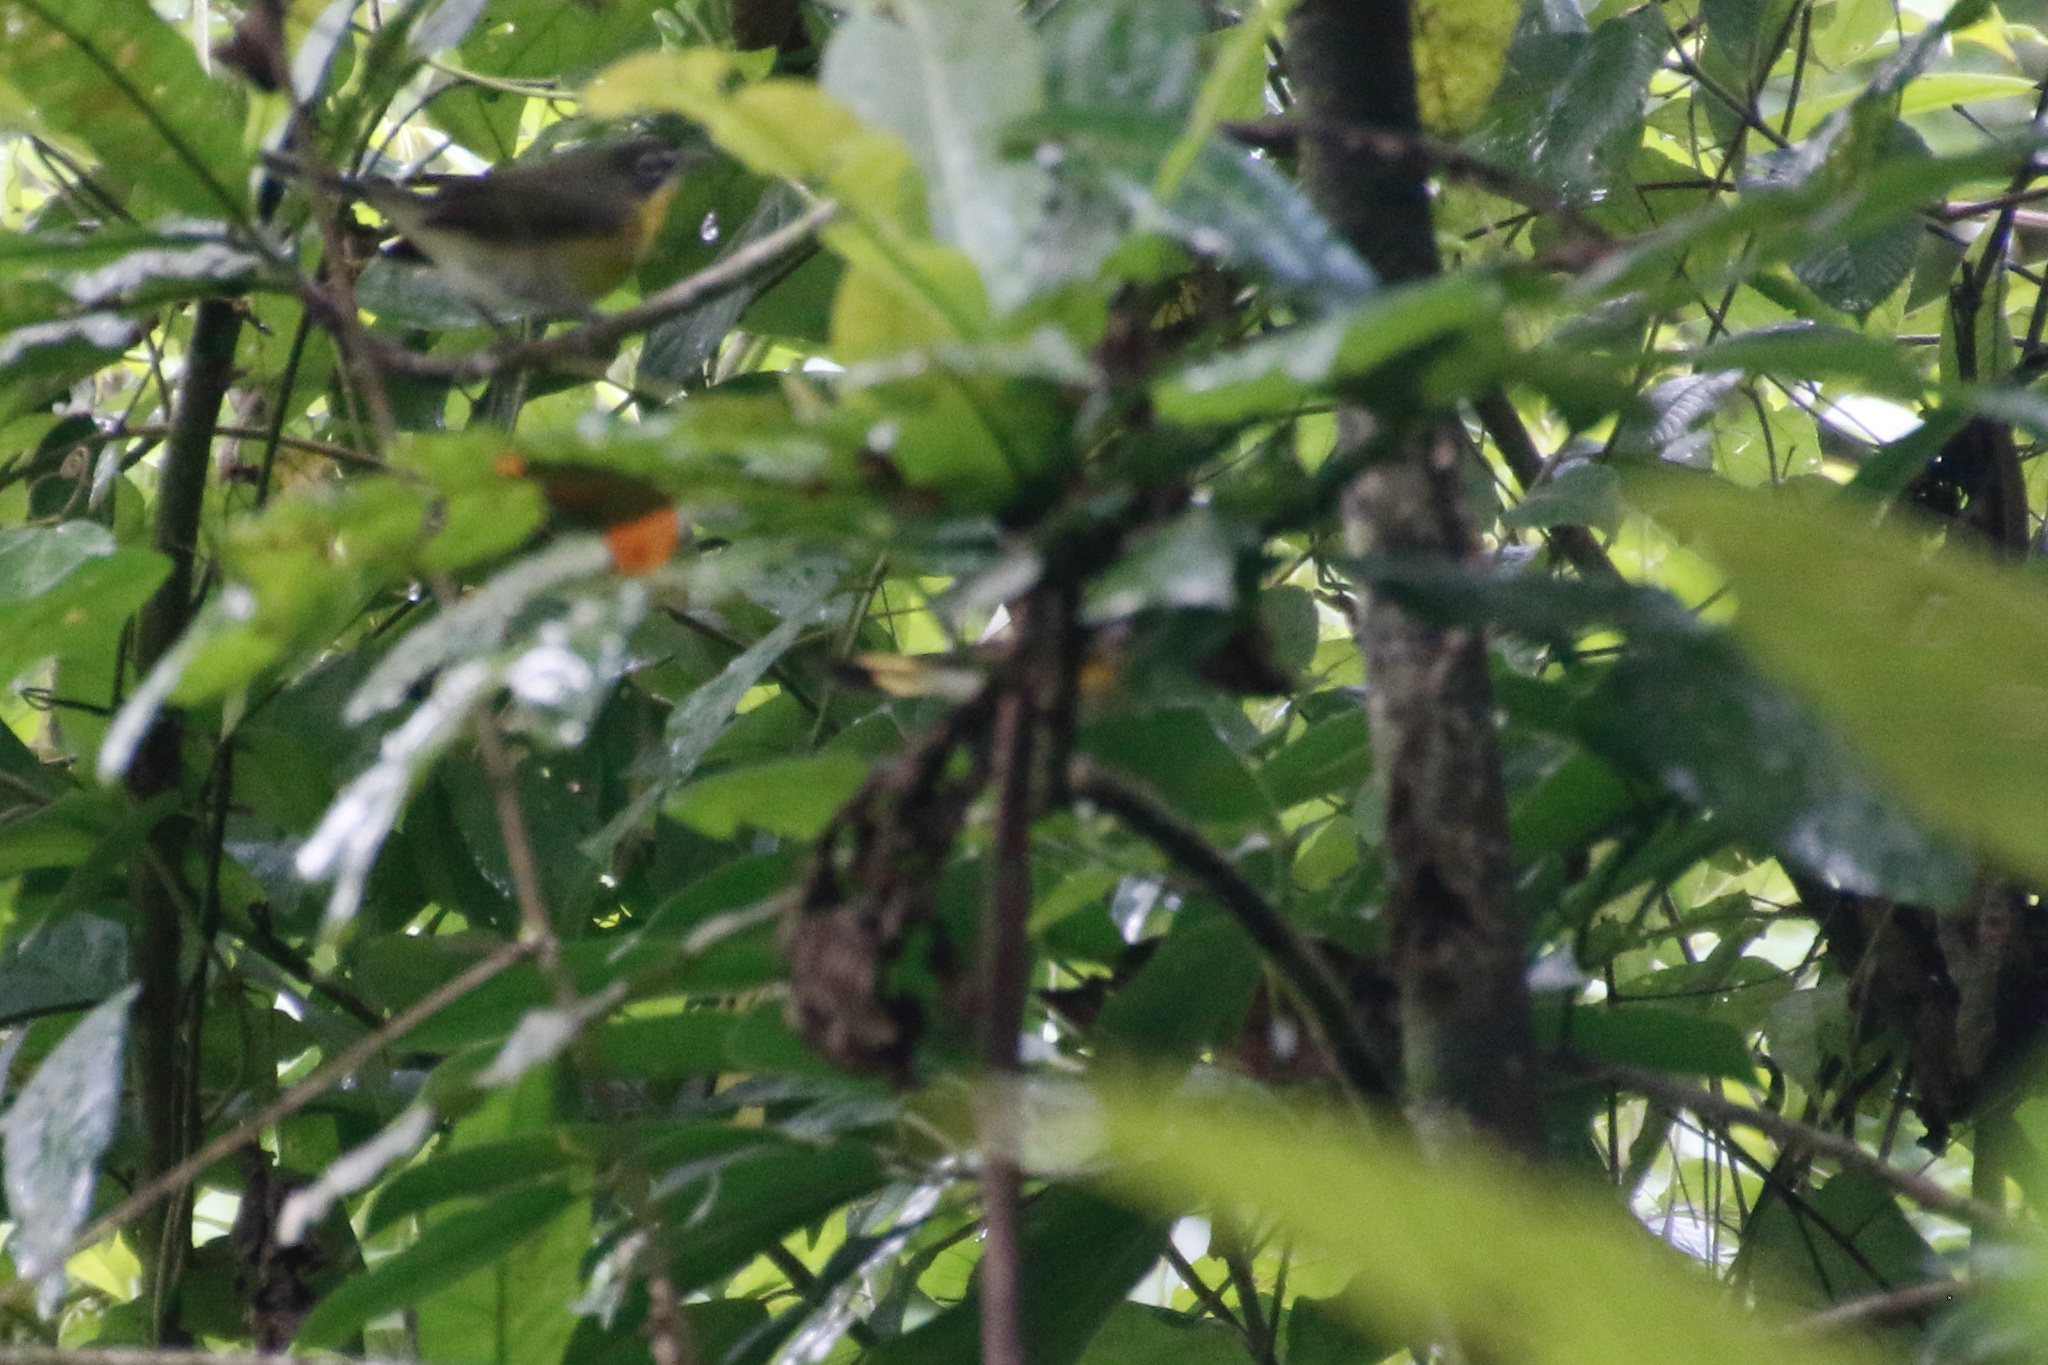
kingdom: Animalia
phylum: Chordata
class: Aves
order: Passeriformes
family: Parulidae
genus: Setophaga
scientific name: Setophaga ruticilla
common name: American redstart
